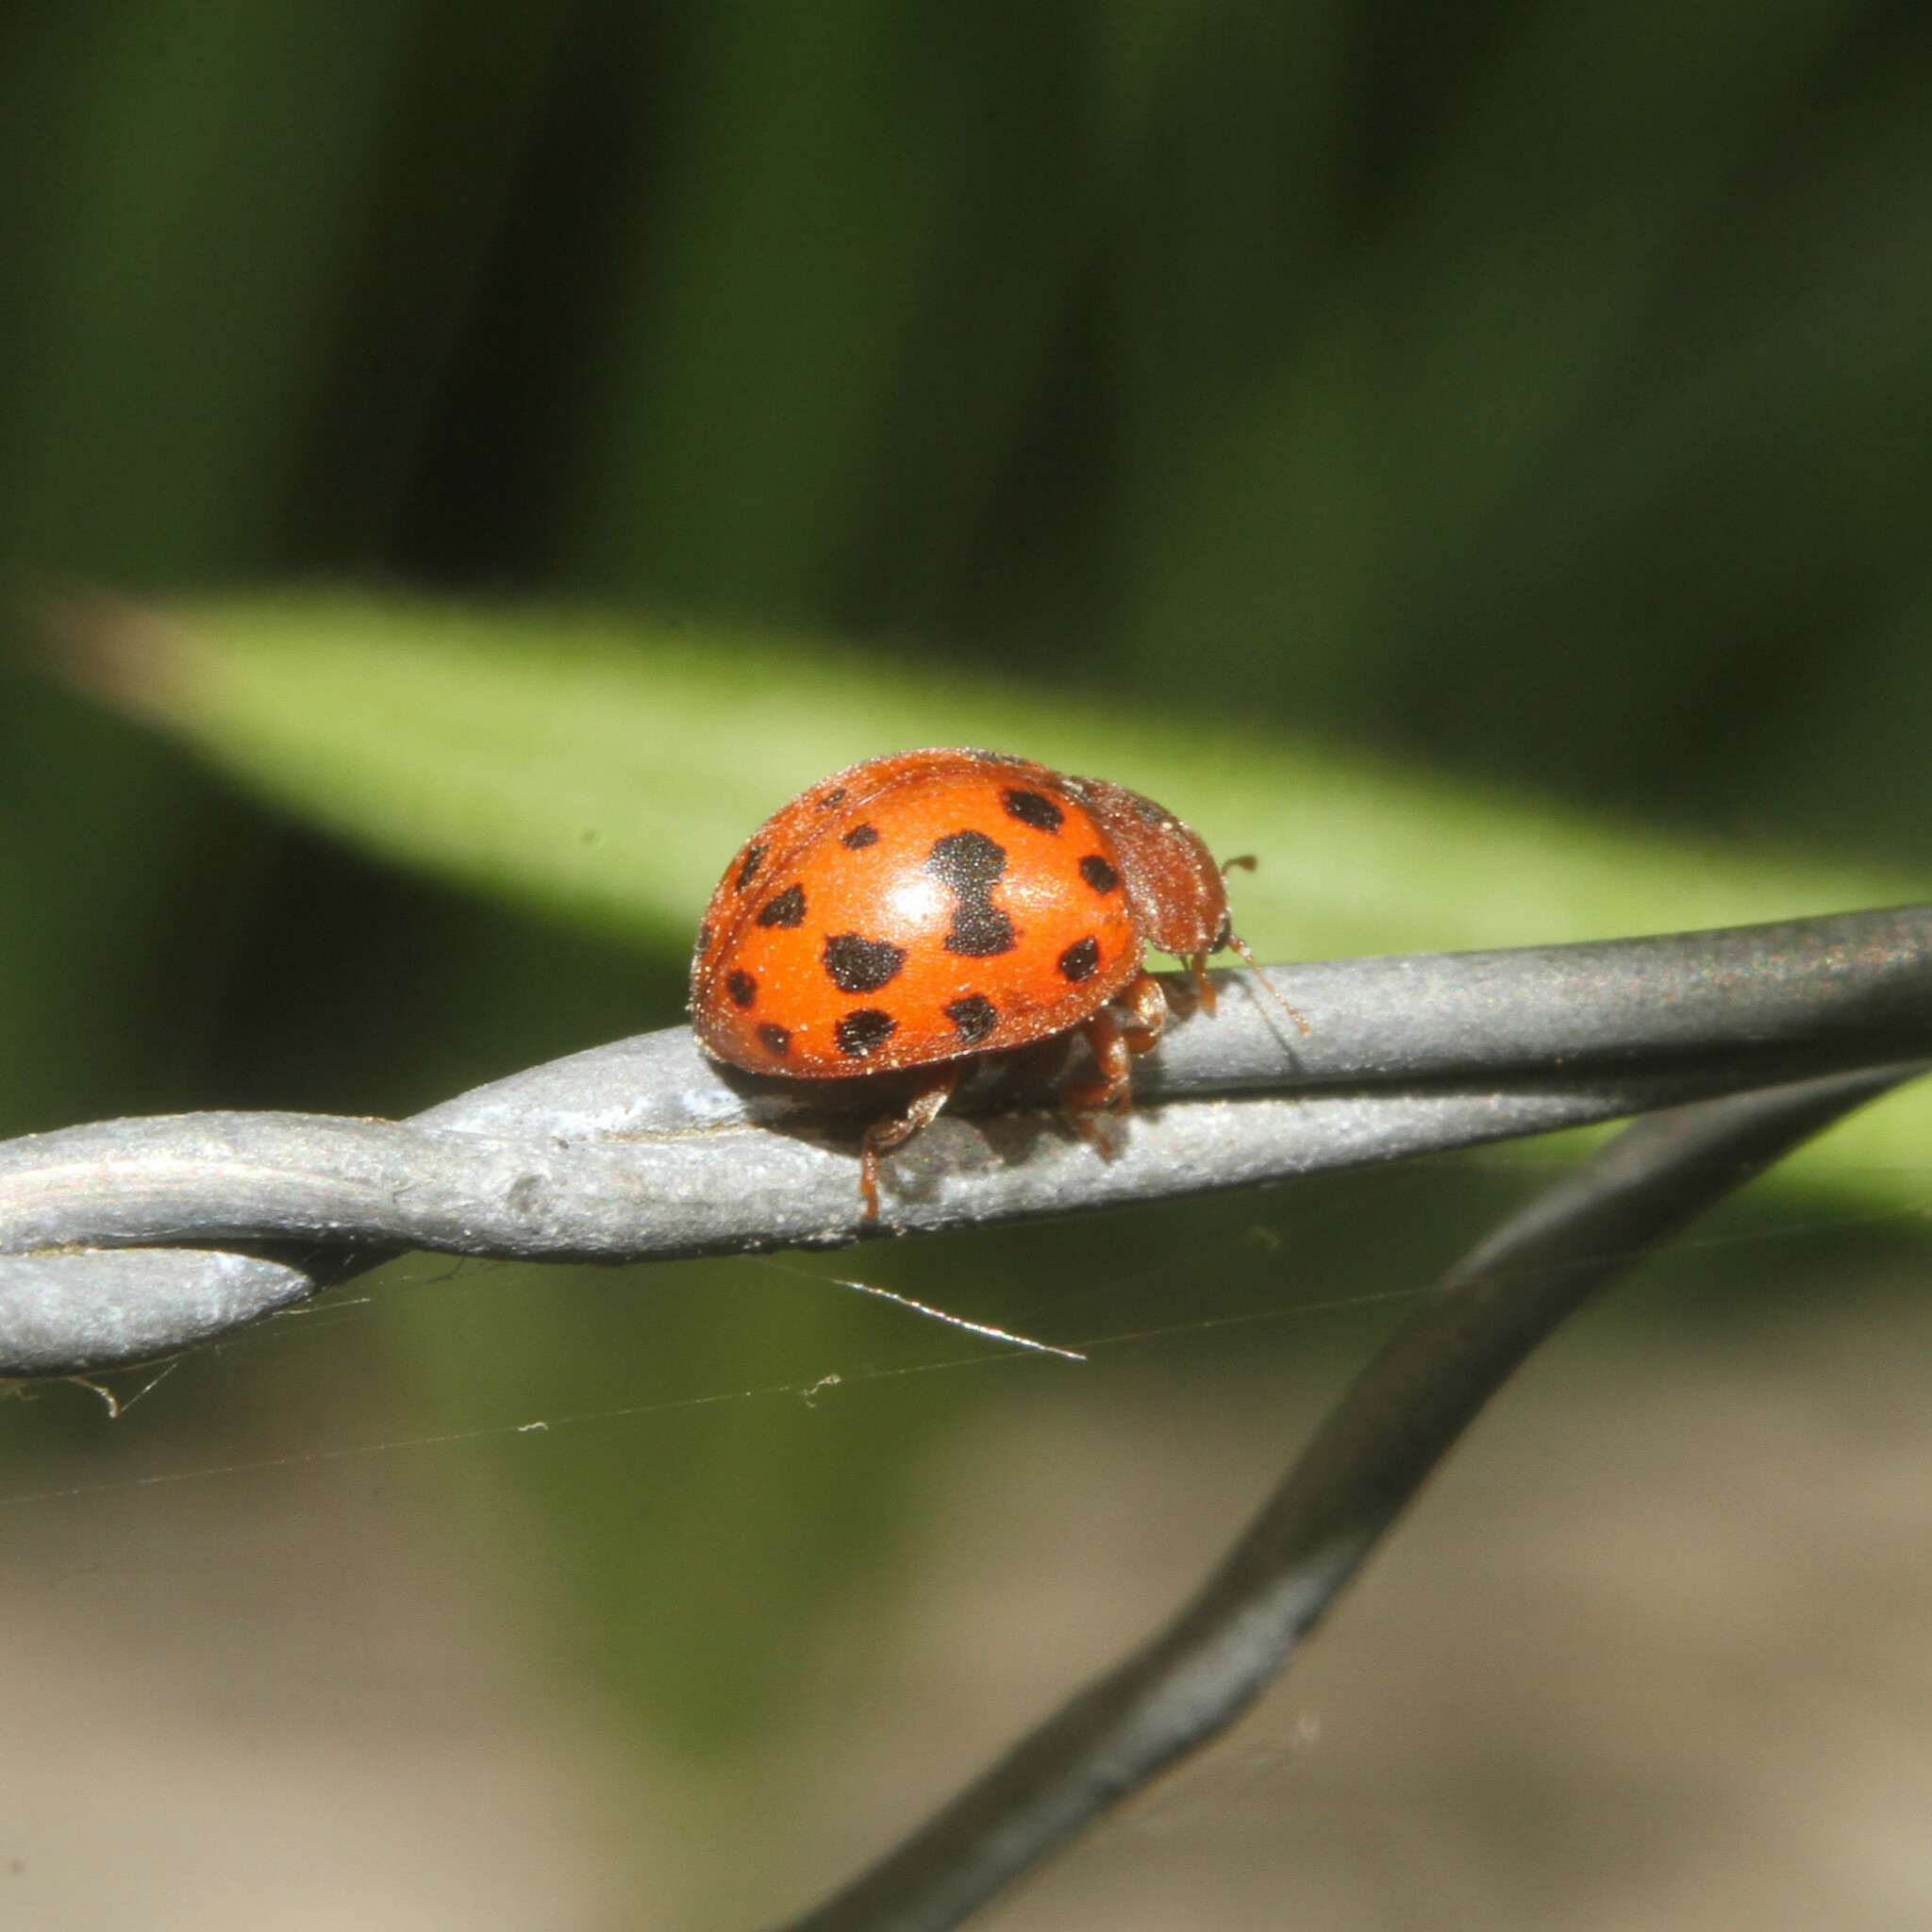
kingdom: Animalia
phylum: Arthropoda
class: Insecta
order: Coleoptera
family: Coccinellidae
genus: Subcoccinella
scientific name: Subcoccinella vigintiquatuorpunctata
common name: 24-spot ladybird
